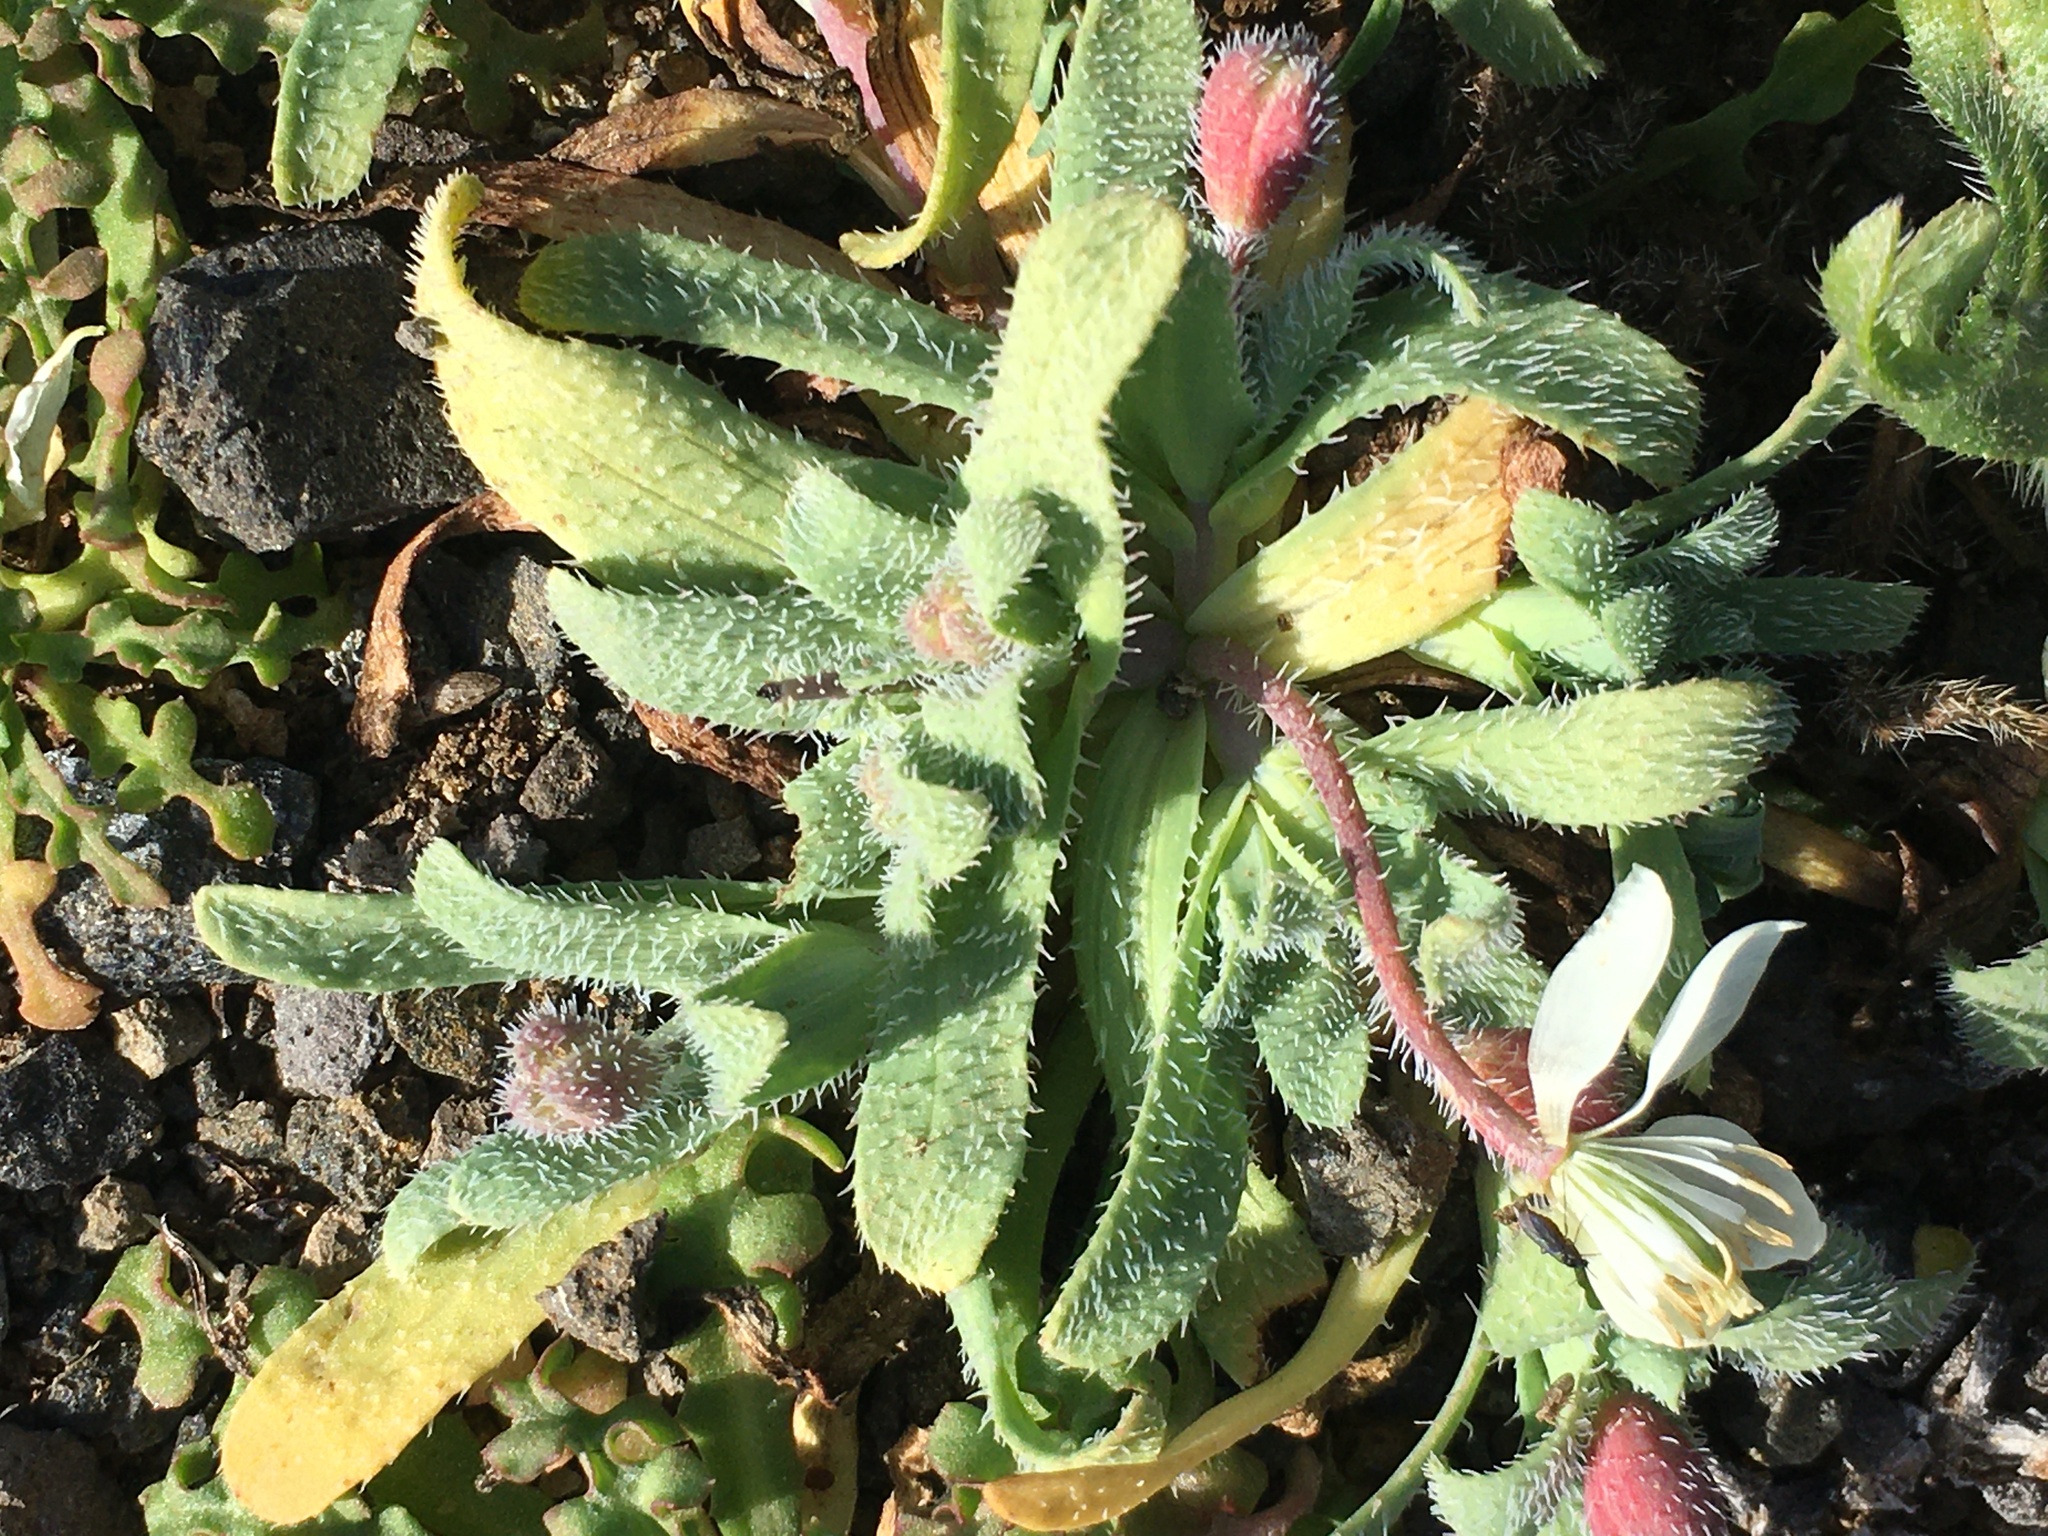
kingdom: Plantae
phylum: Tracheophyta
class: Magnoliopsida
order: Ranunculales
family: Papaveraceae
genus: Platystemon
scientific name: Platystemon californicus
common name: Cream-cups
